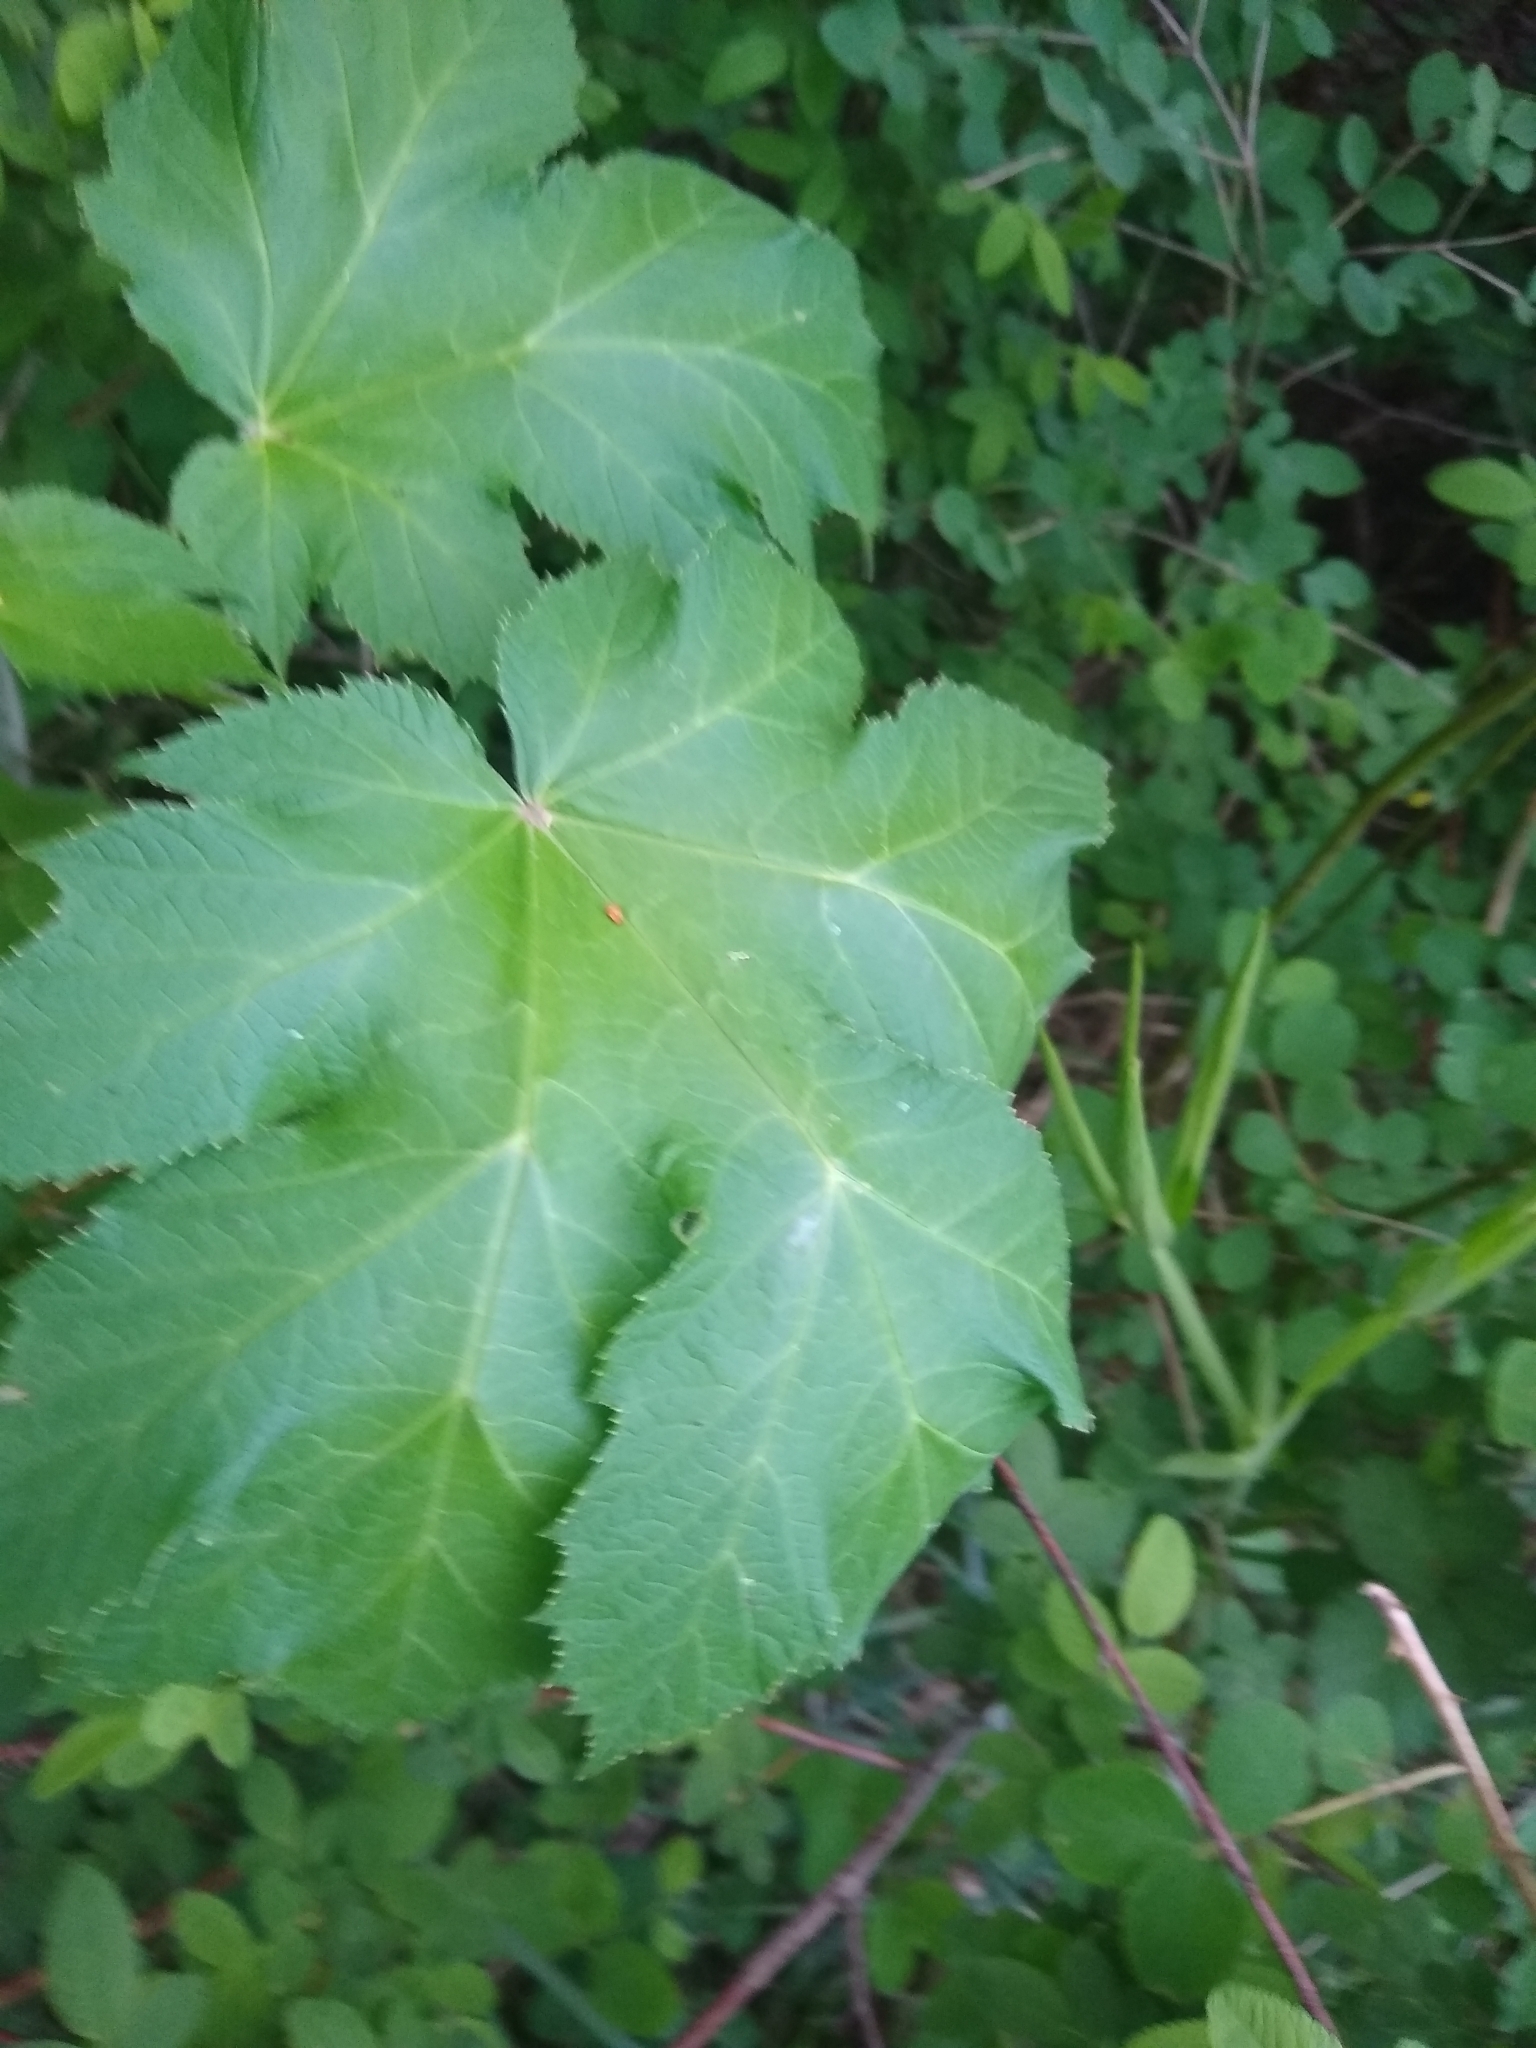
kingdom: Plantae
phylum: Tracheophyta
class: Magnoliopsida
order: Apiales
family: Apiaceae
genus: Heracleum
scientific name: Heracleum maximum
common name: American cow parsnip
